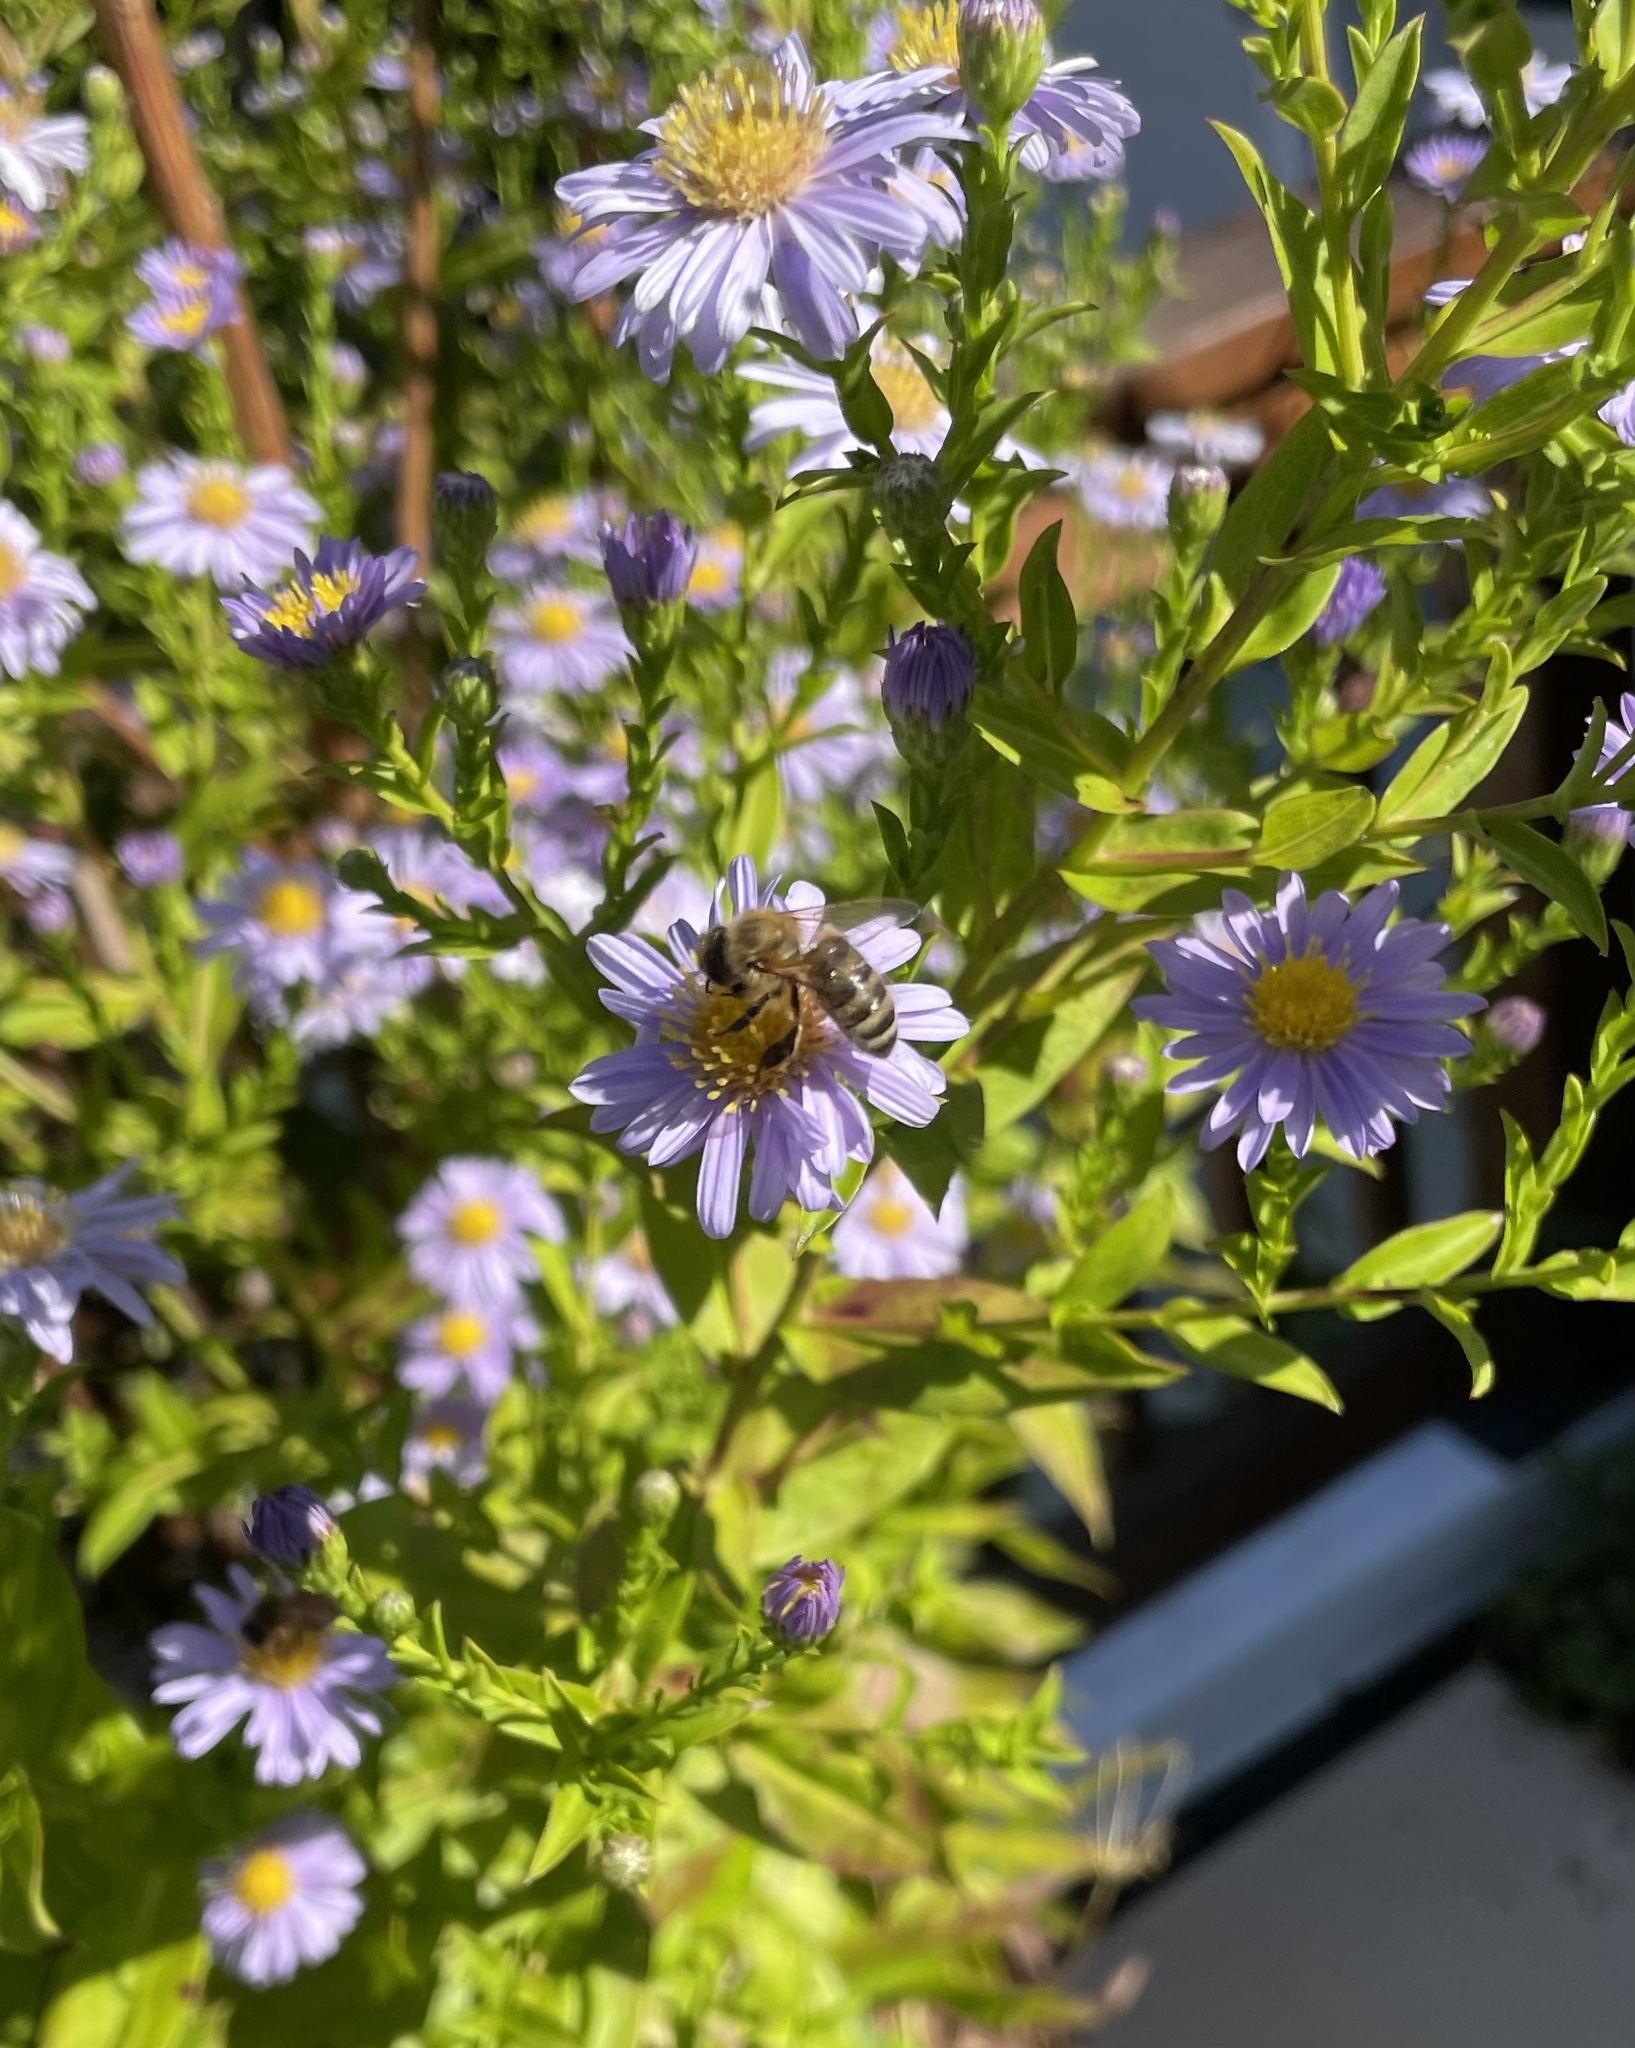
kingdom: Animalia
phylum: Arthropoda
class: Insecta
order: Hymenoptera
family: Apidae
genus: Apis
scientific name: Apis mellifera
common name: Honey bee
